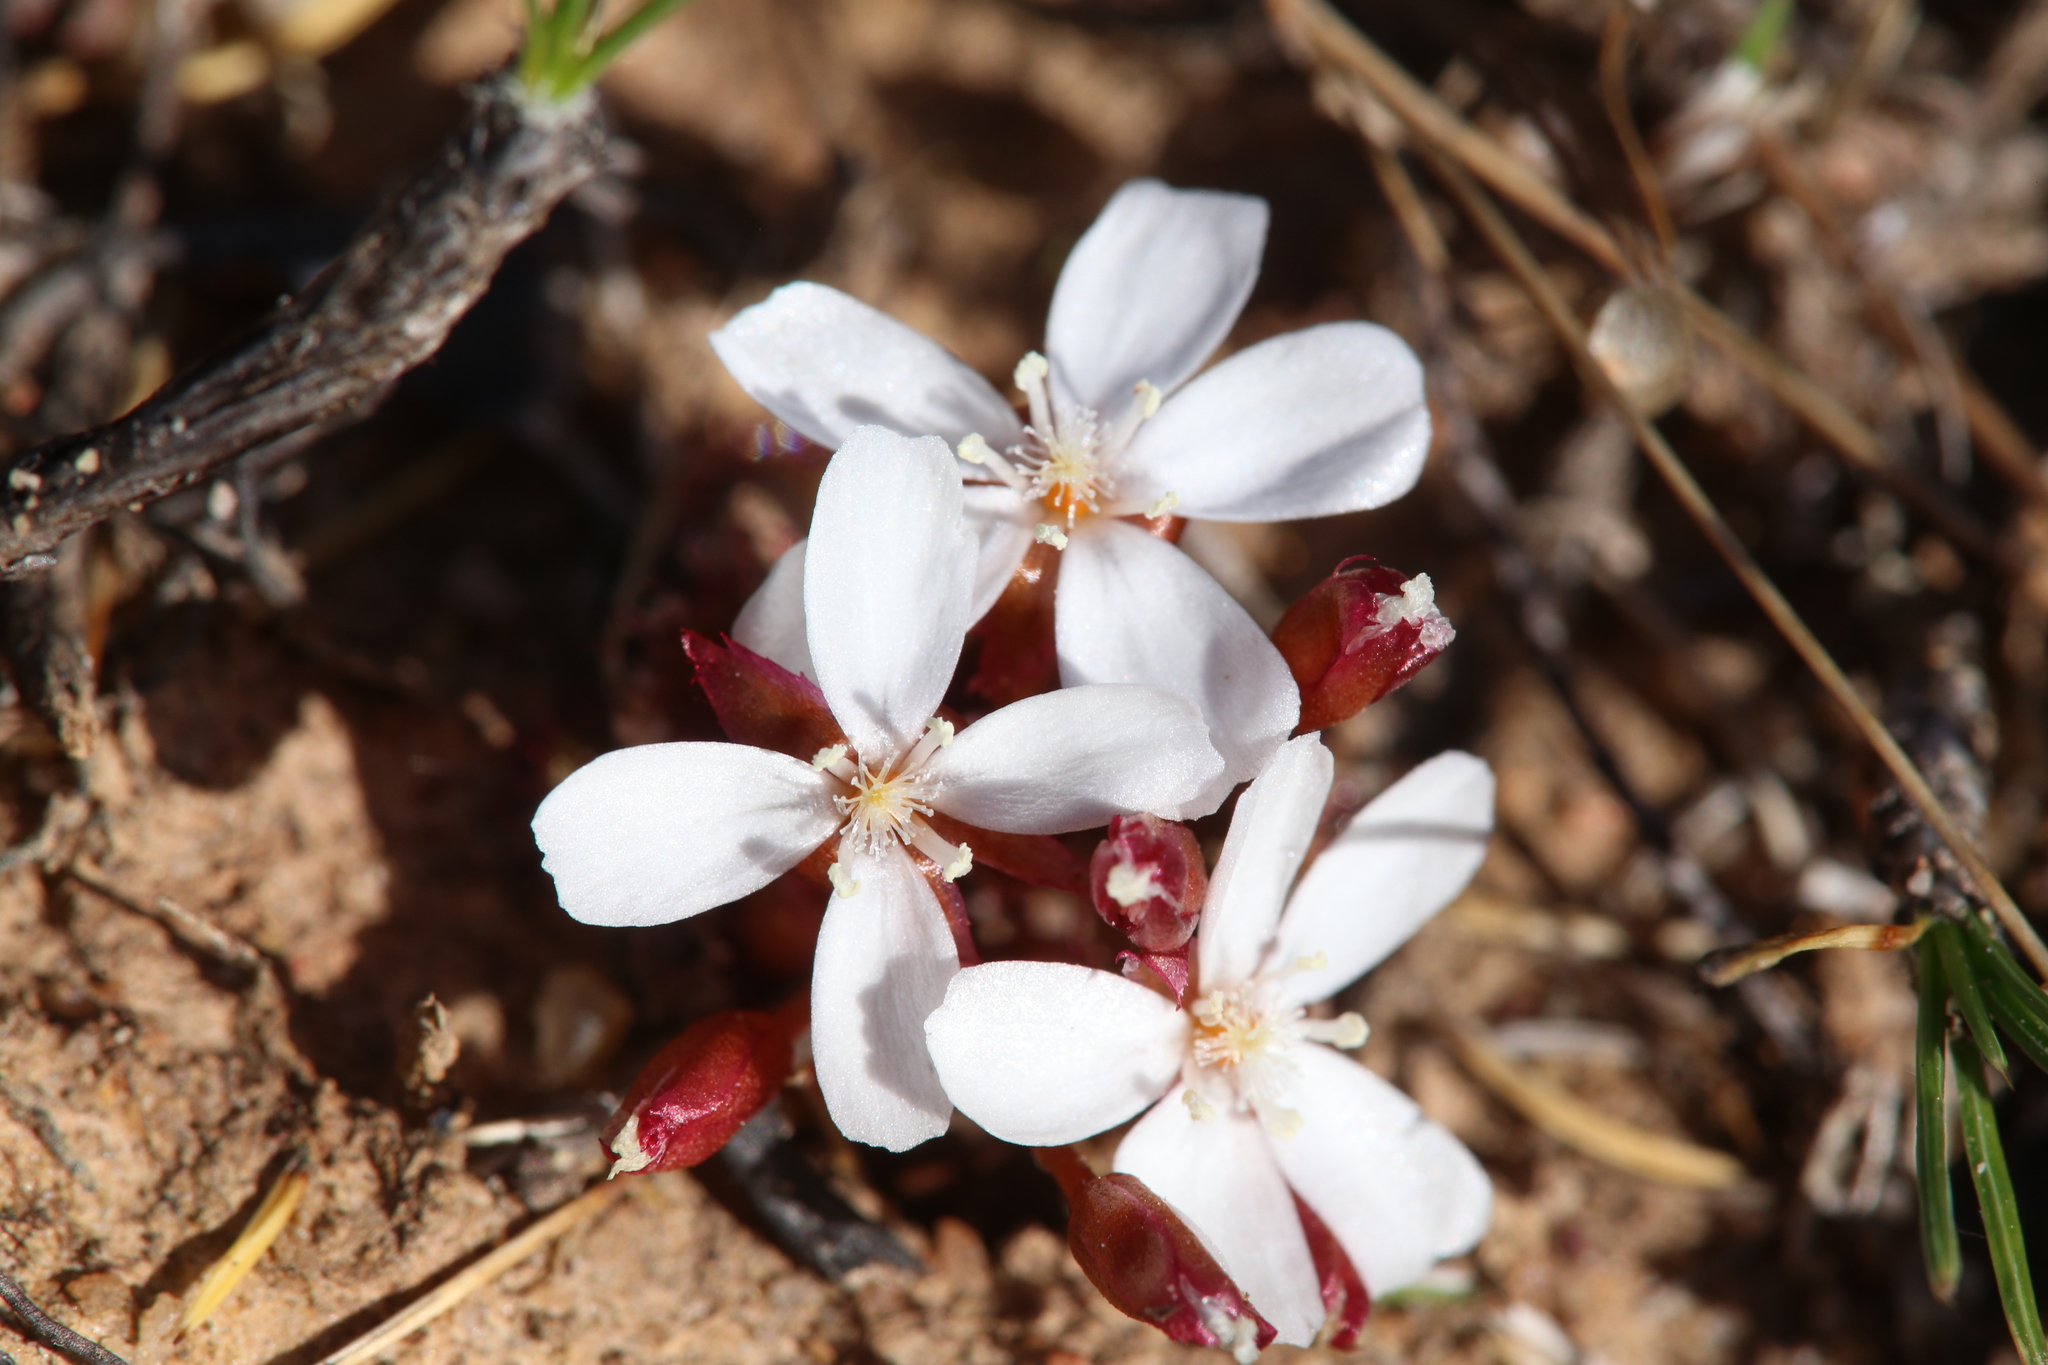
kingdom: Plantae
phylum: Tracheophyta
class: Magnoliopsida
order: Caryophyllales
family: Droseraceae
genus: Drosera
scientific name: Drosera bulbosa
